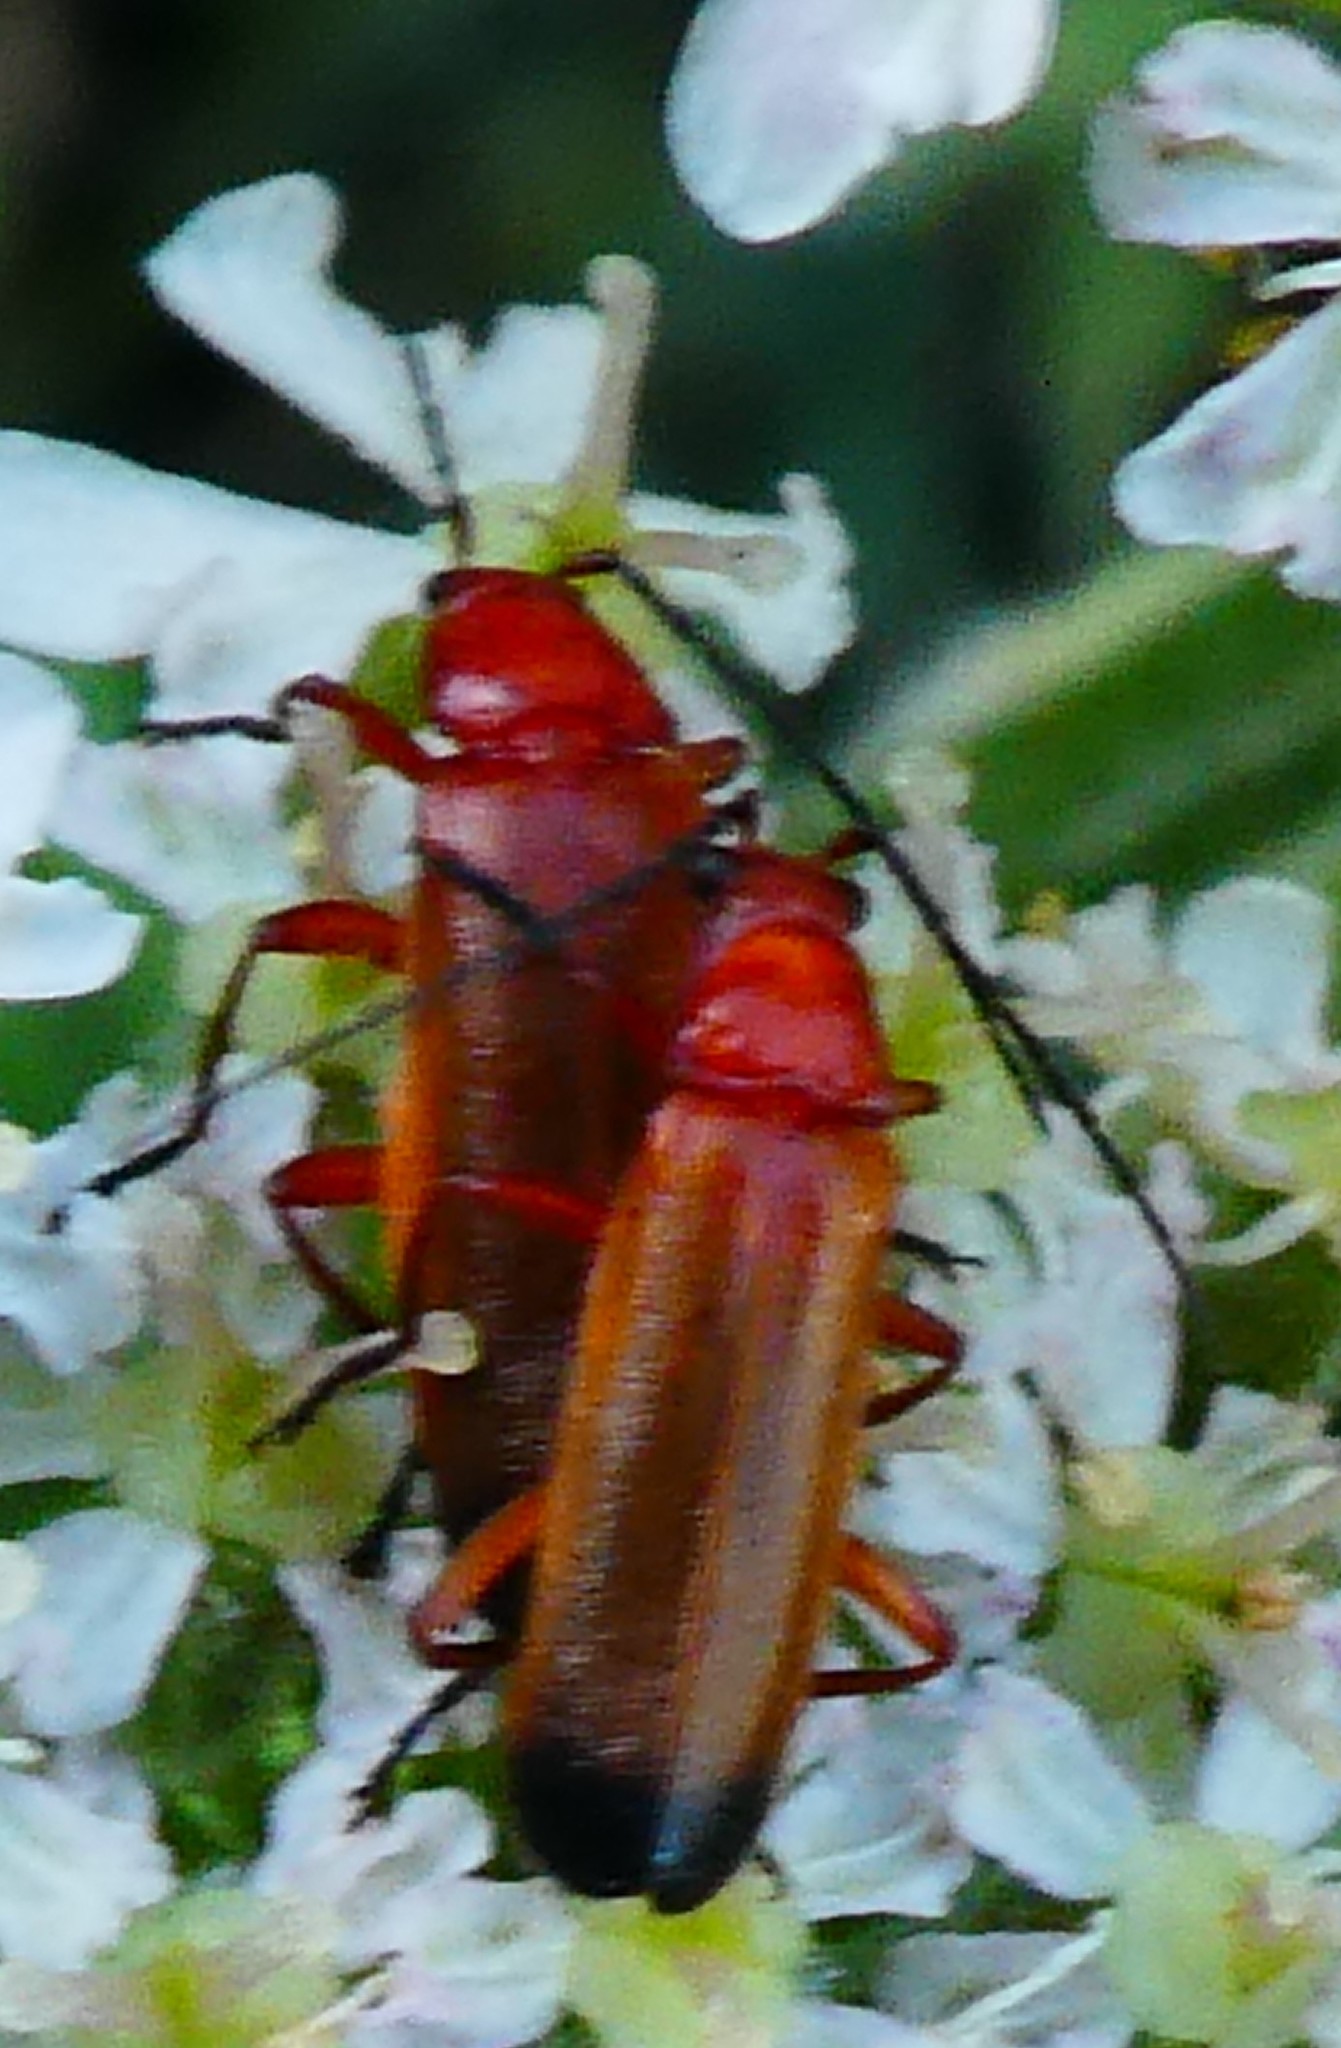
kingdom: Animalia
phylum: Arthropoda
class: Insecta
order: Coleoptera
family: Cantharidae
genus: Rhagonycha
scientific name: Rhagonycha fulva
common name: Common red soldier beetle
